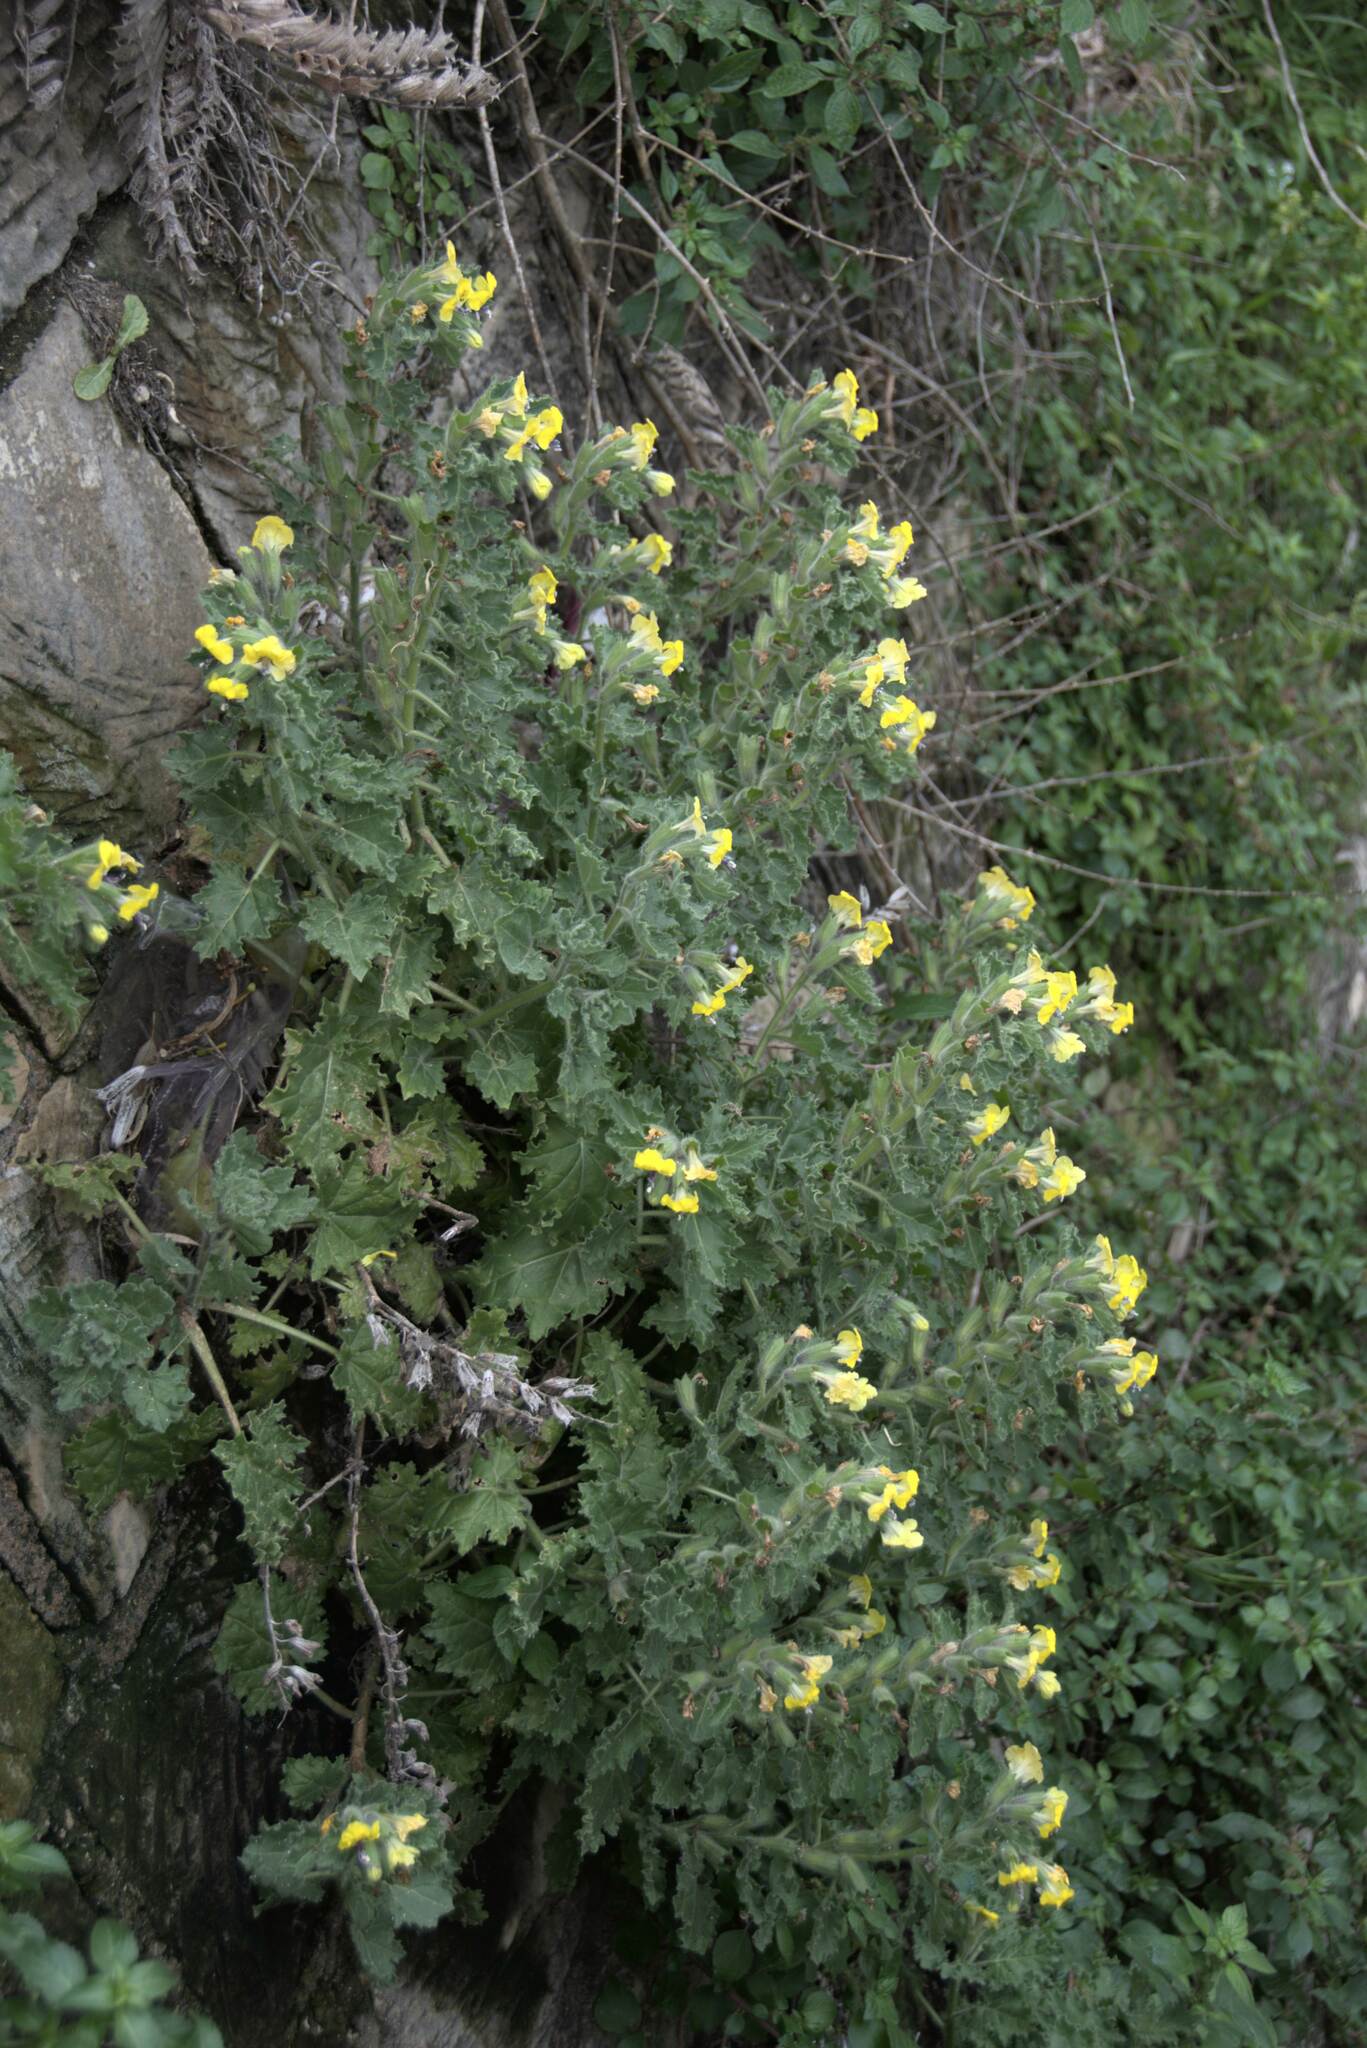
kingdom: Plantae
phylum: Tracheophyta
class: Magnoliopsida
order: Solanales
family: Solanaceae
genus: Hyoscyamus
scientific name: Hyoscyamus aureus
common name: Golden henbane
